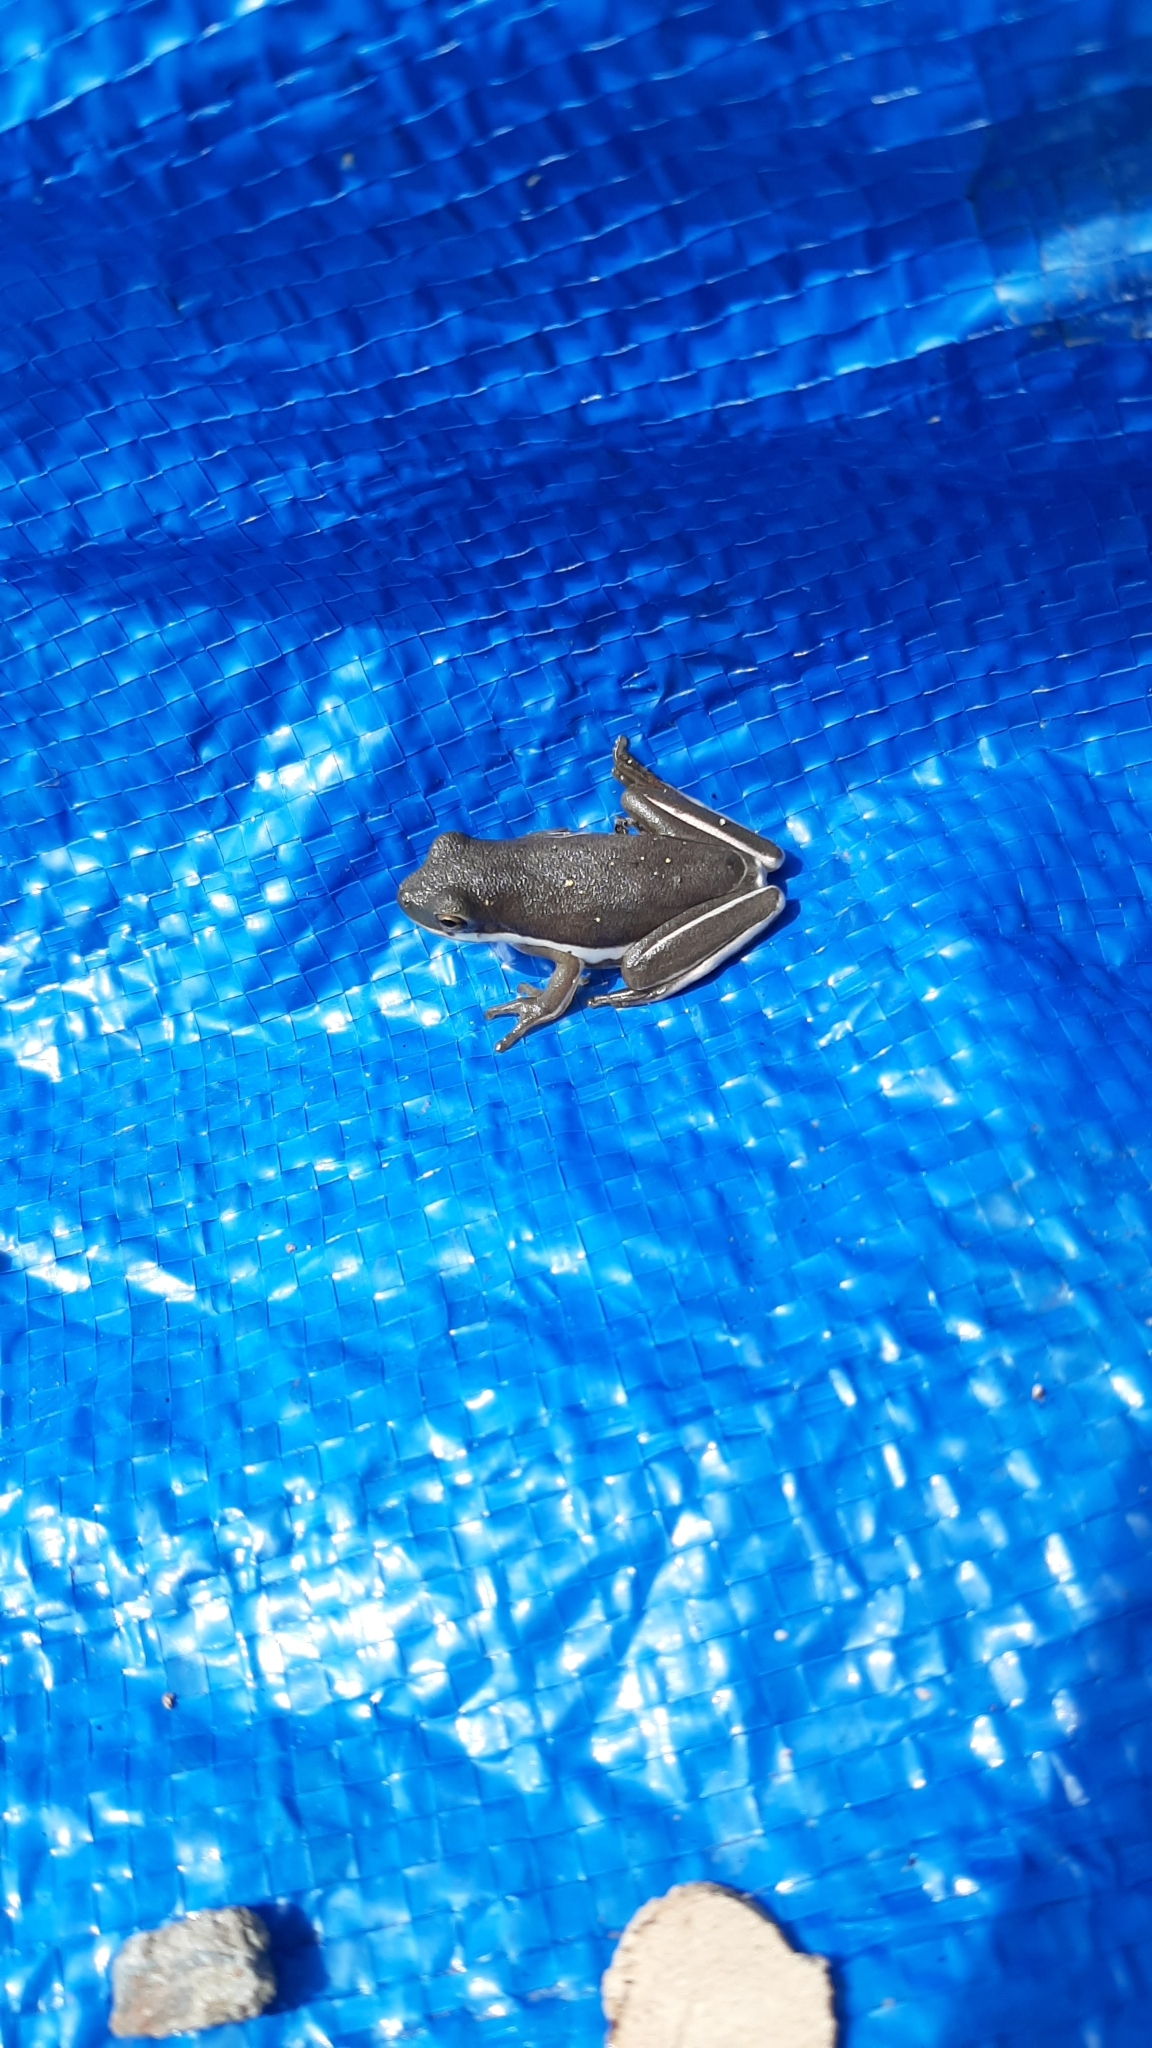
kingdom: Animalia
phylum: Chordata
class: Amphibia
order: Anura
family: Hylidae
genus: Dryophytes
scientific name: Dryophytes cinereus
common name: Green treefrog
